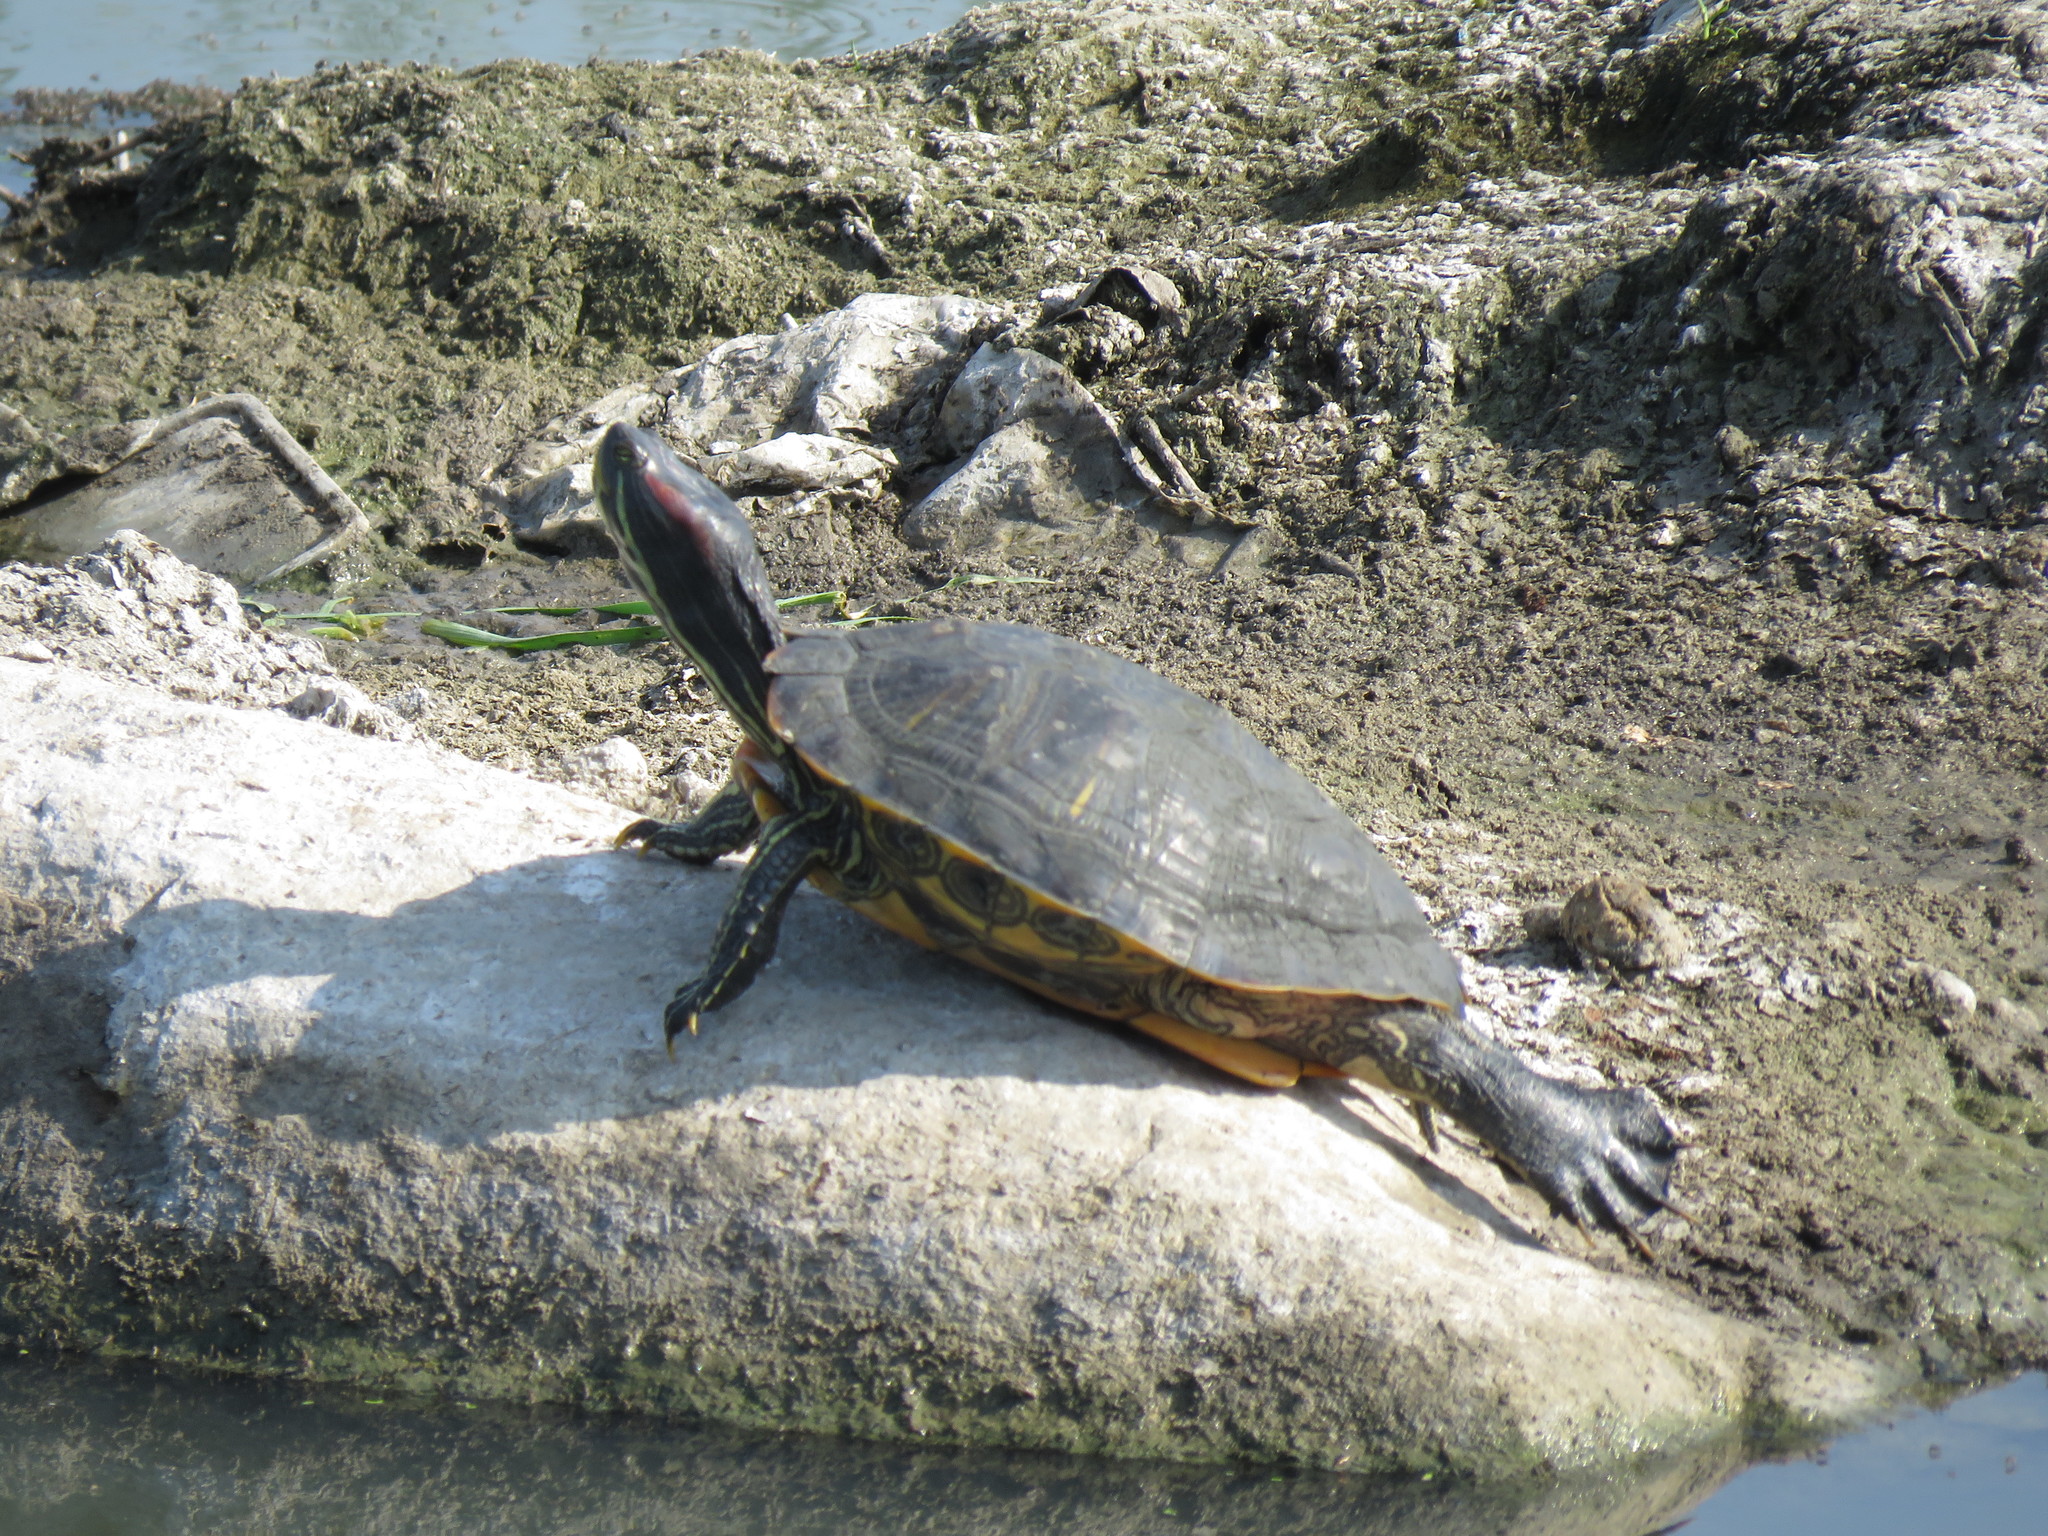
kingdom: Animalia
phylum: Chordata
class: Testudines
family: Emydidae
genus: Trachemys
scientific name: Trachemys scripta
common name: Slider
